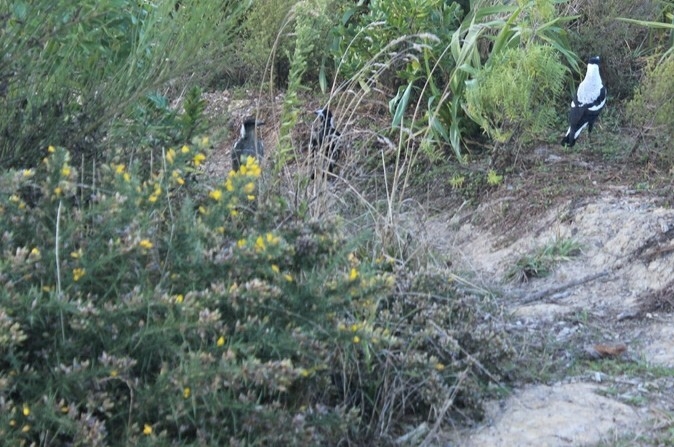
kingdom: Plantae
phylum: Tracheophyta
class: Magnoliopsida
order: Fabales
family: Fabaceae
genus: Ulex
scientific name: Ulex europaeus
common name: Common gorse
